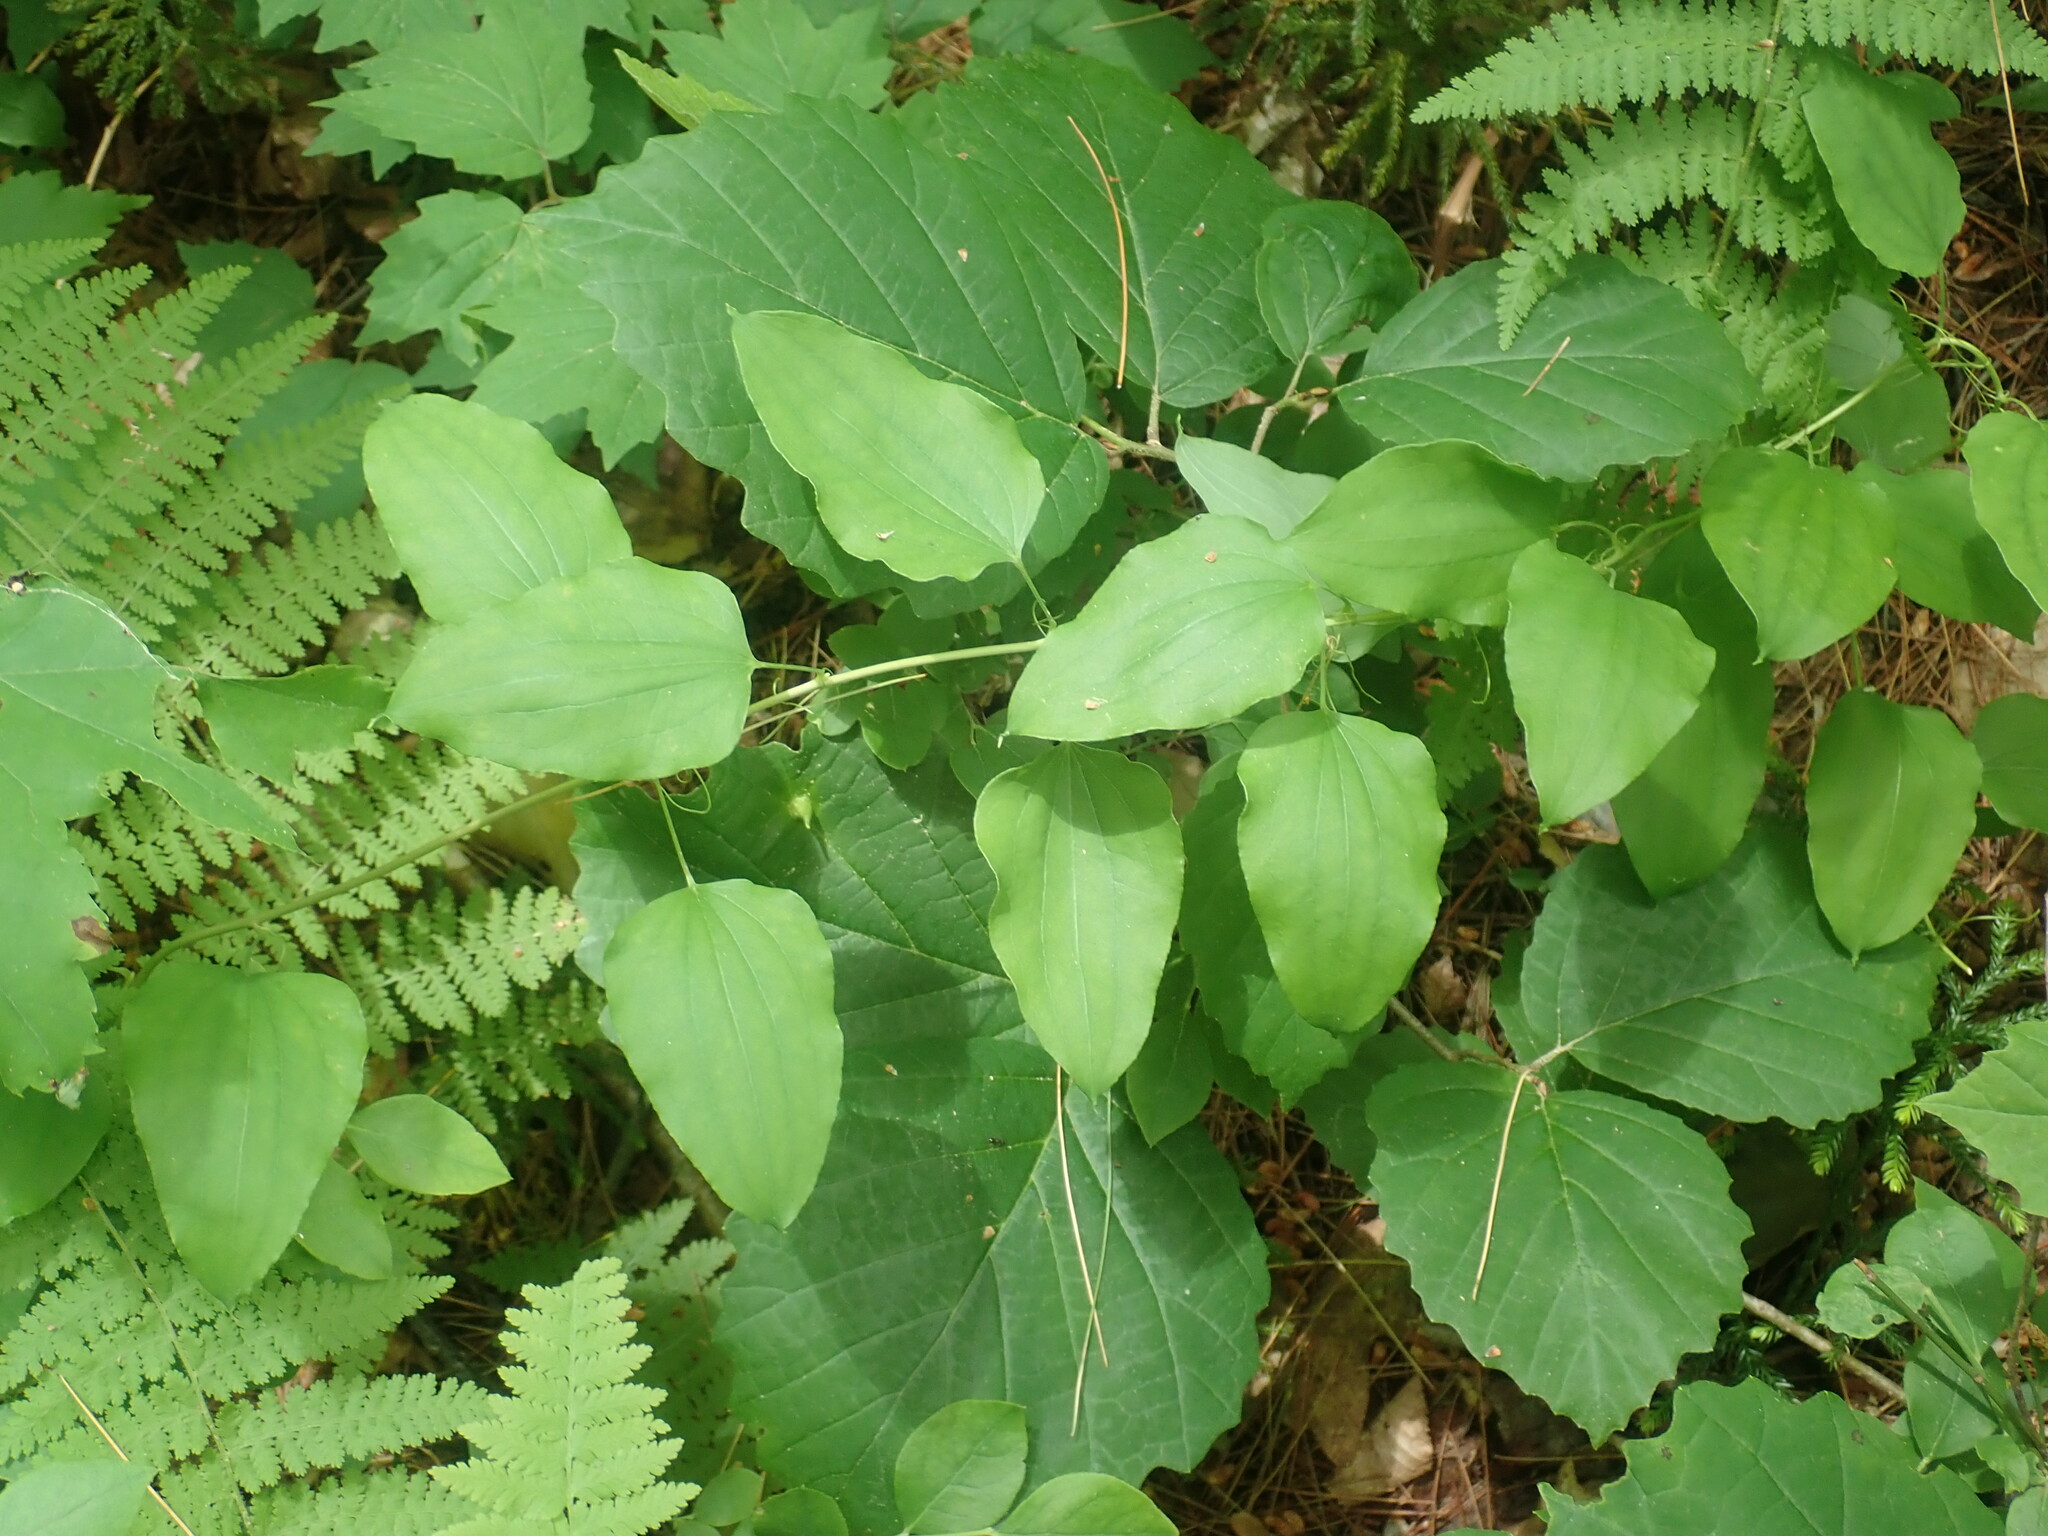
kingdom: Plantae
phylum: Tracheophyta
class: Liliopsida
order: Liliales
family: Smilacaceae
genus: Smilax
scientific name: Smilax herbacea
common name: Jacob's-ladder
